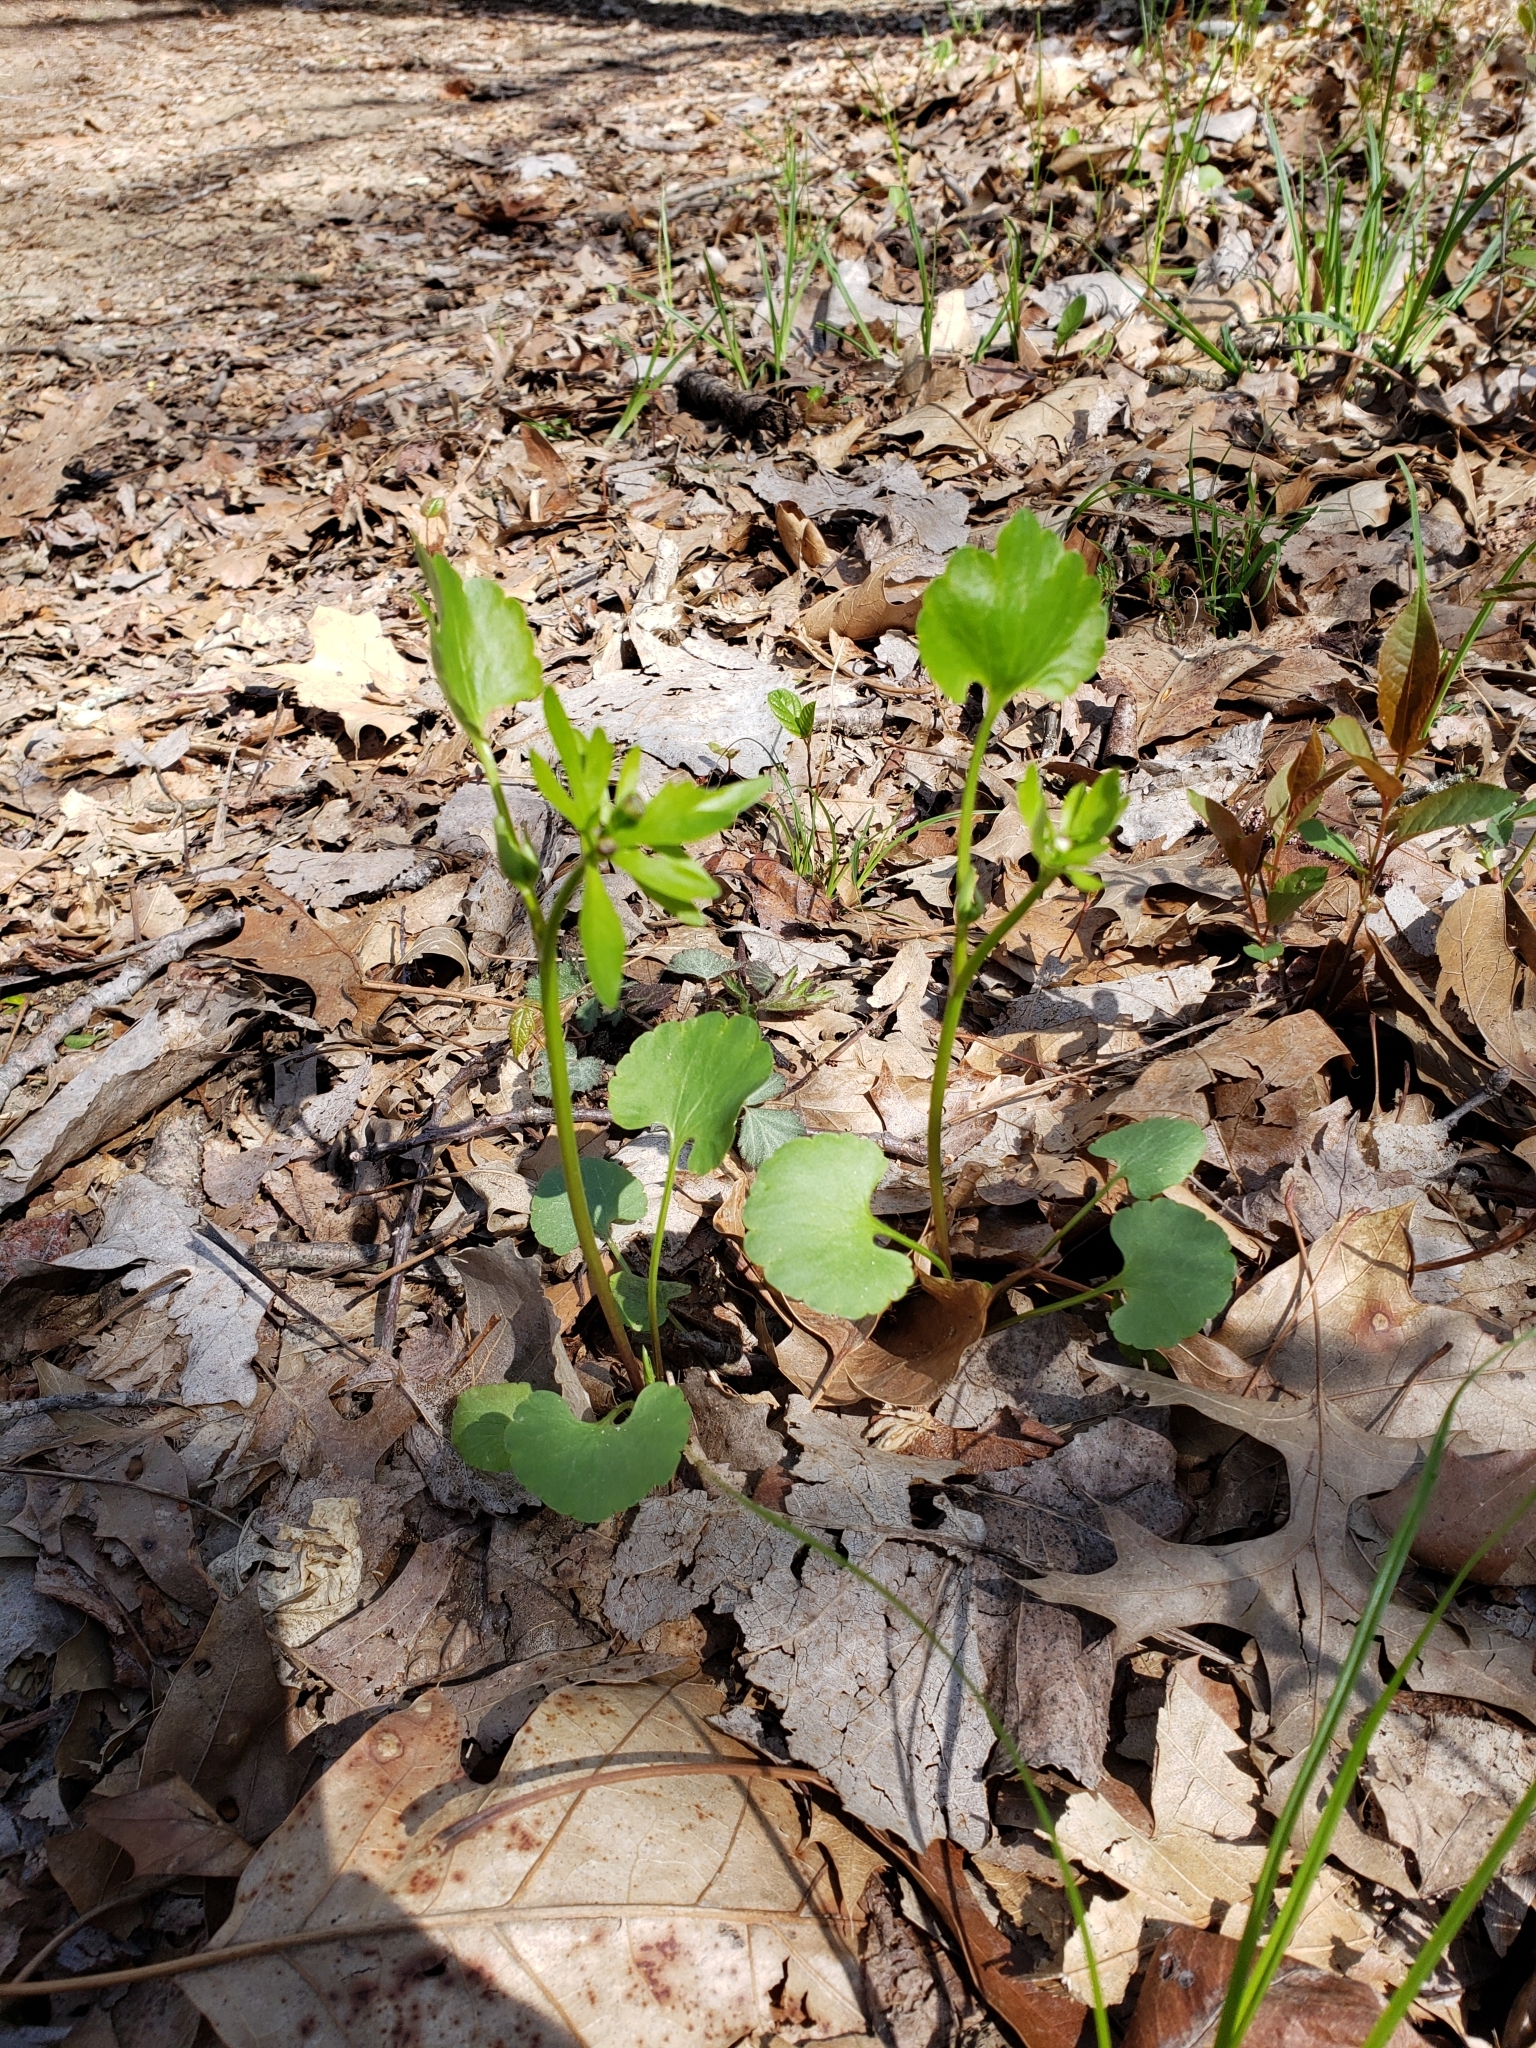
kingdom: Plantae
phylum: Tracheophyta
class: Magnoliopsida
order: Ranunculales
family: Ranunculaceae
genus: Ranunculus
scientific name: Ranunculus abortivus
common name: Early wood buttercup
